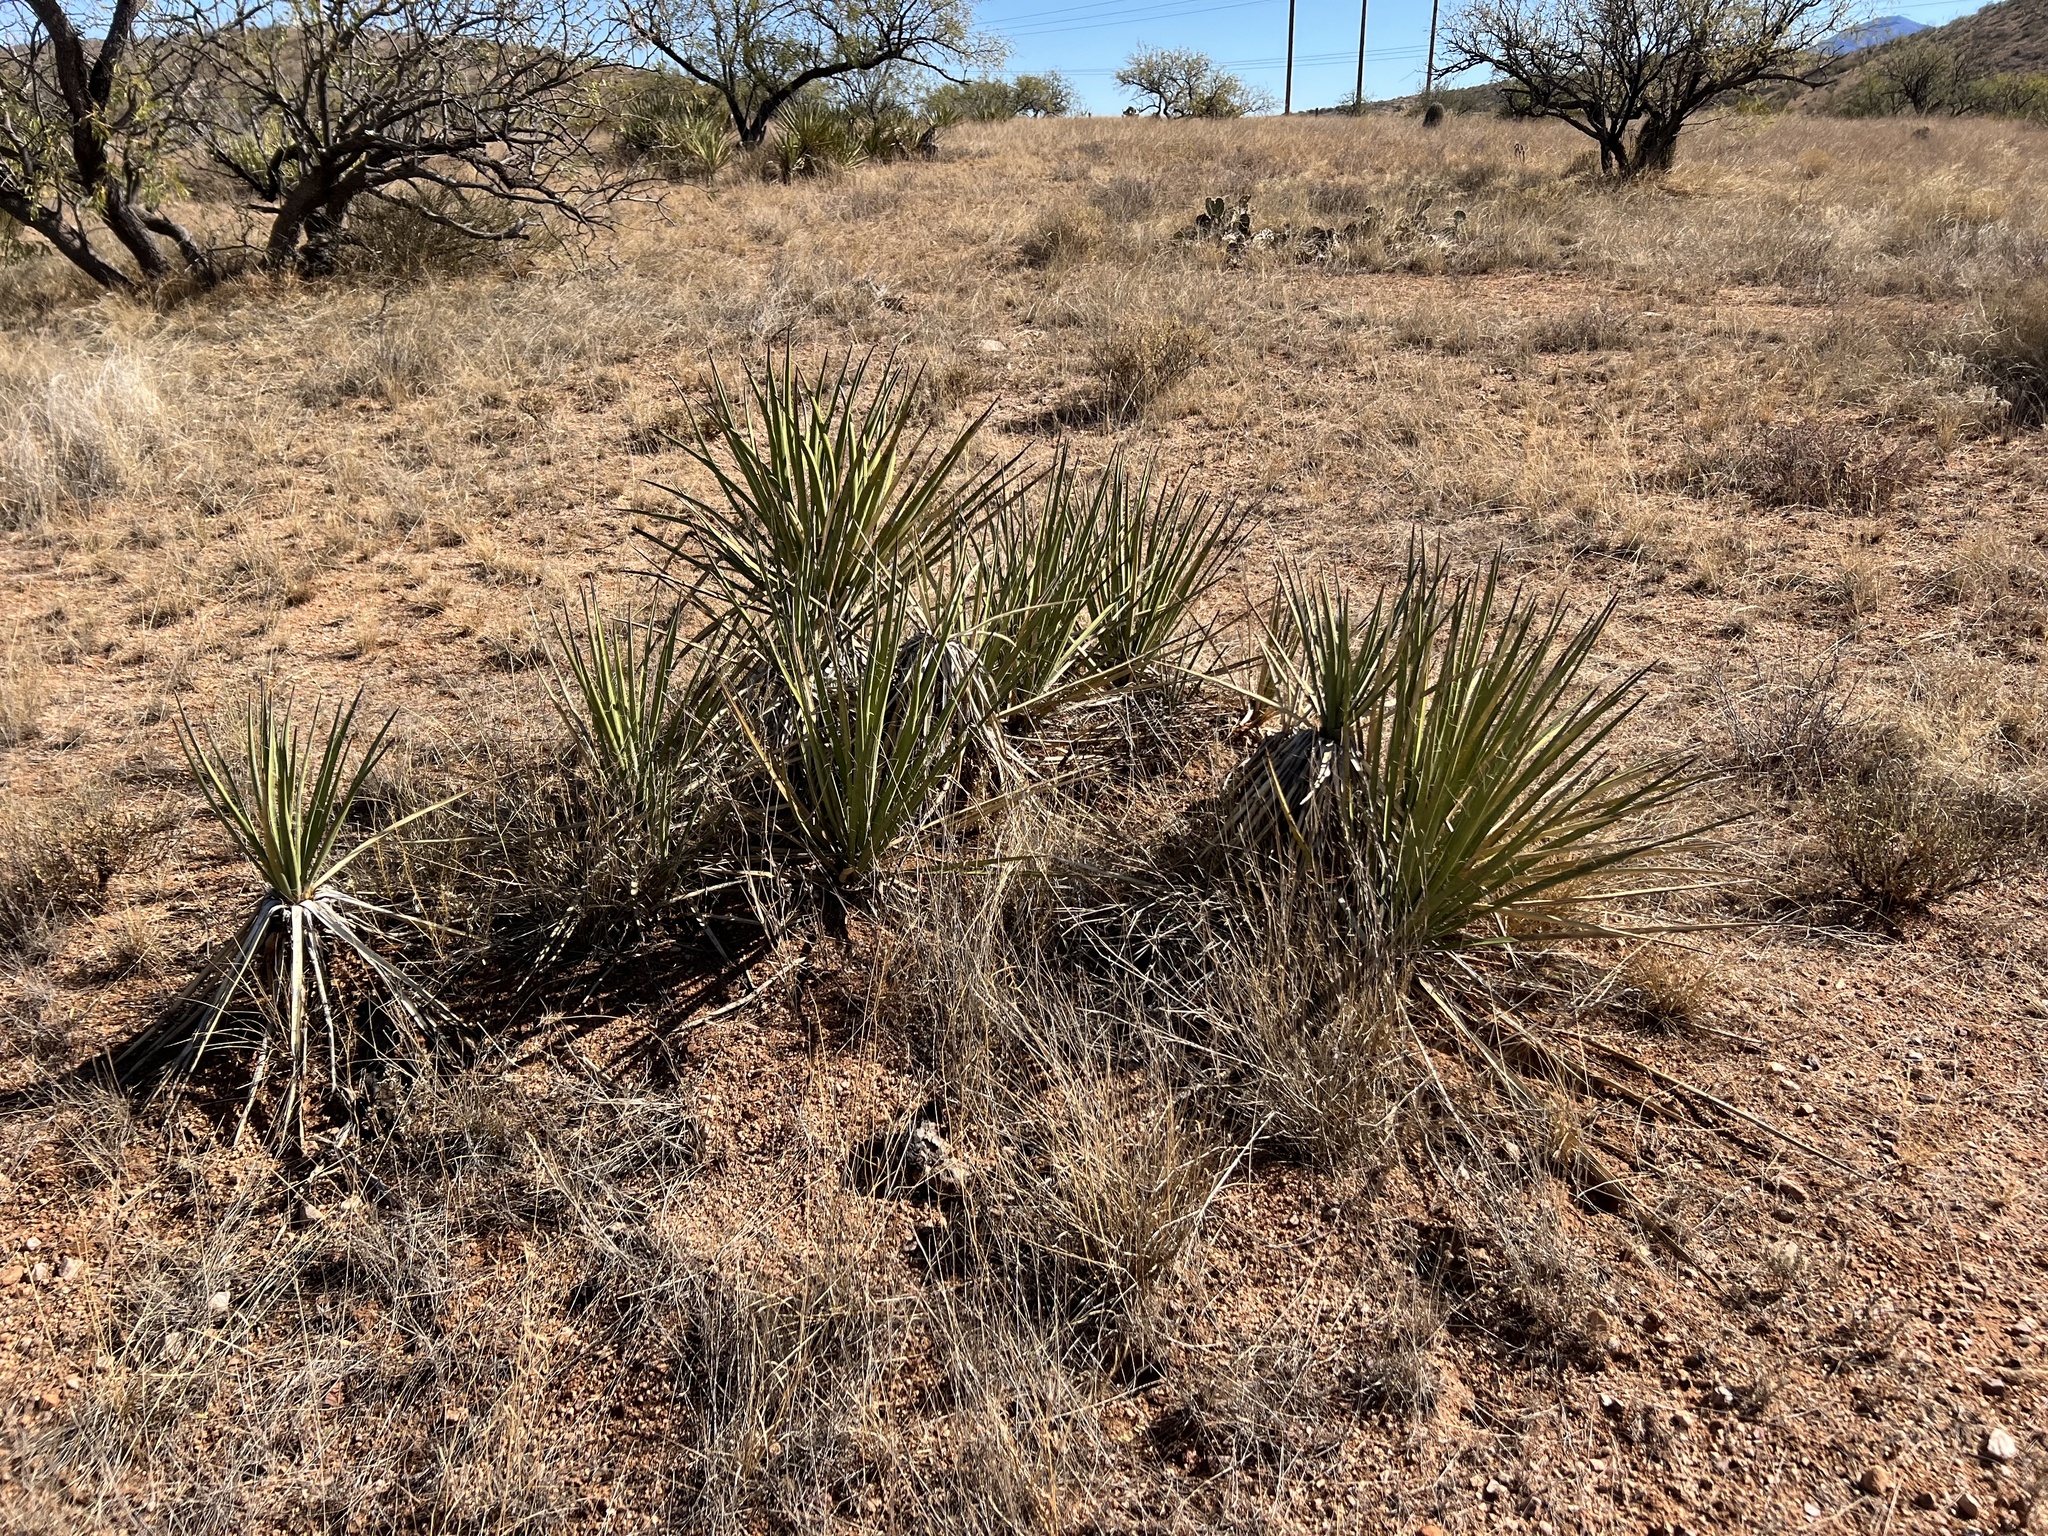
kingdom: Plantae
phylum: Tracheophyta
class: Liliopsida
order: Asparagales
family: Asparagaceae
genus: Yucca
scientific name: Yucca baccata
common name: Banana yucca
